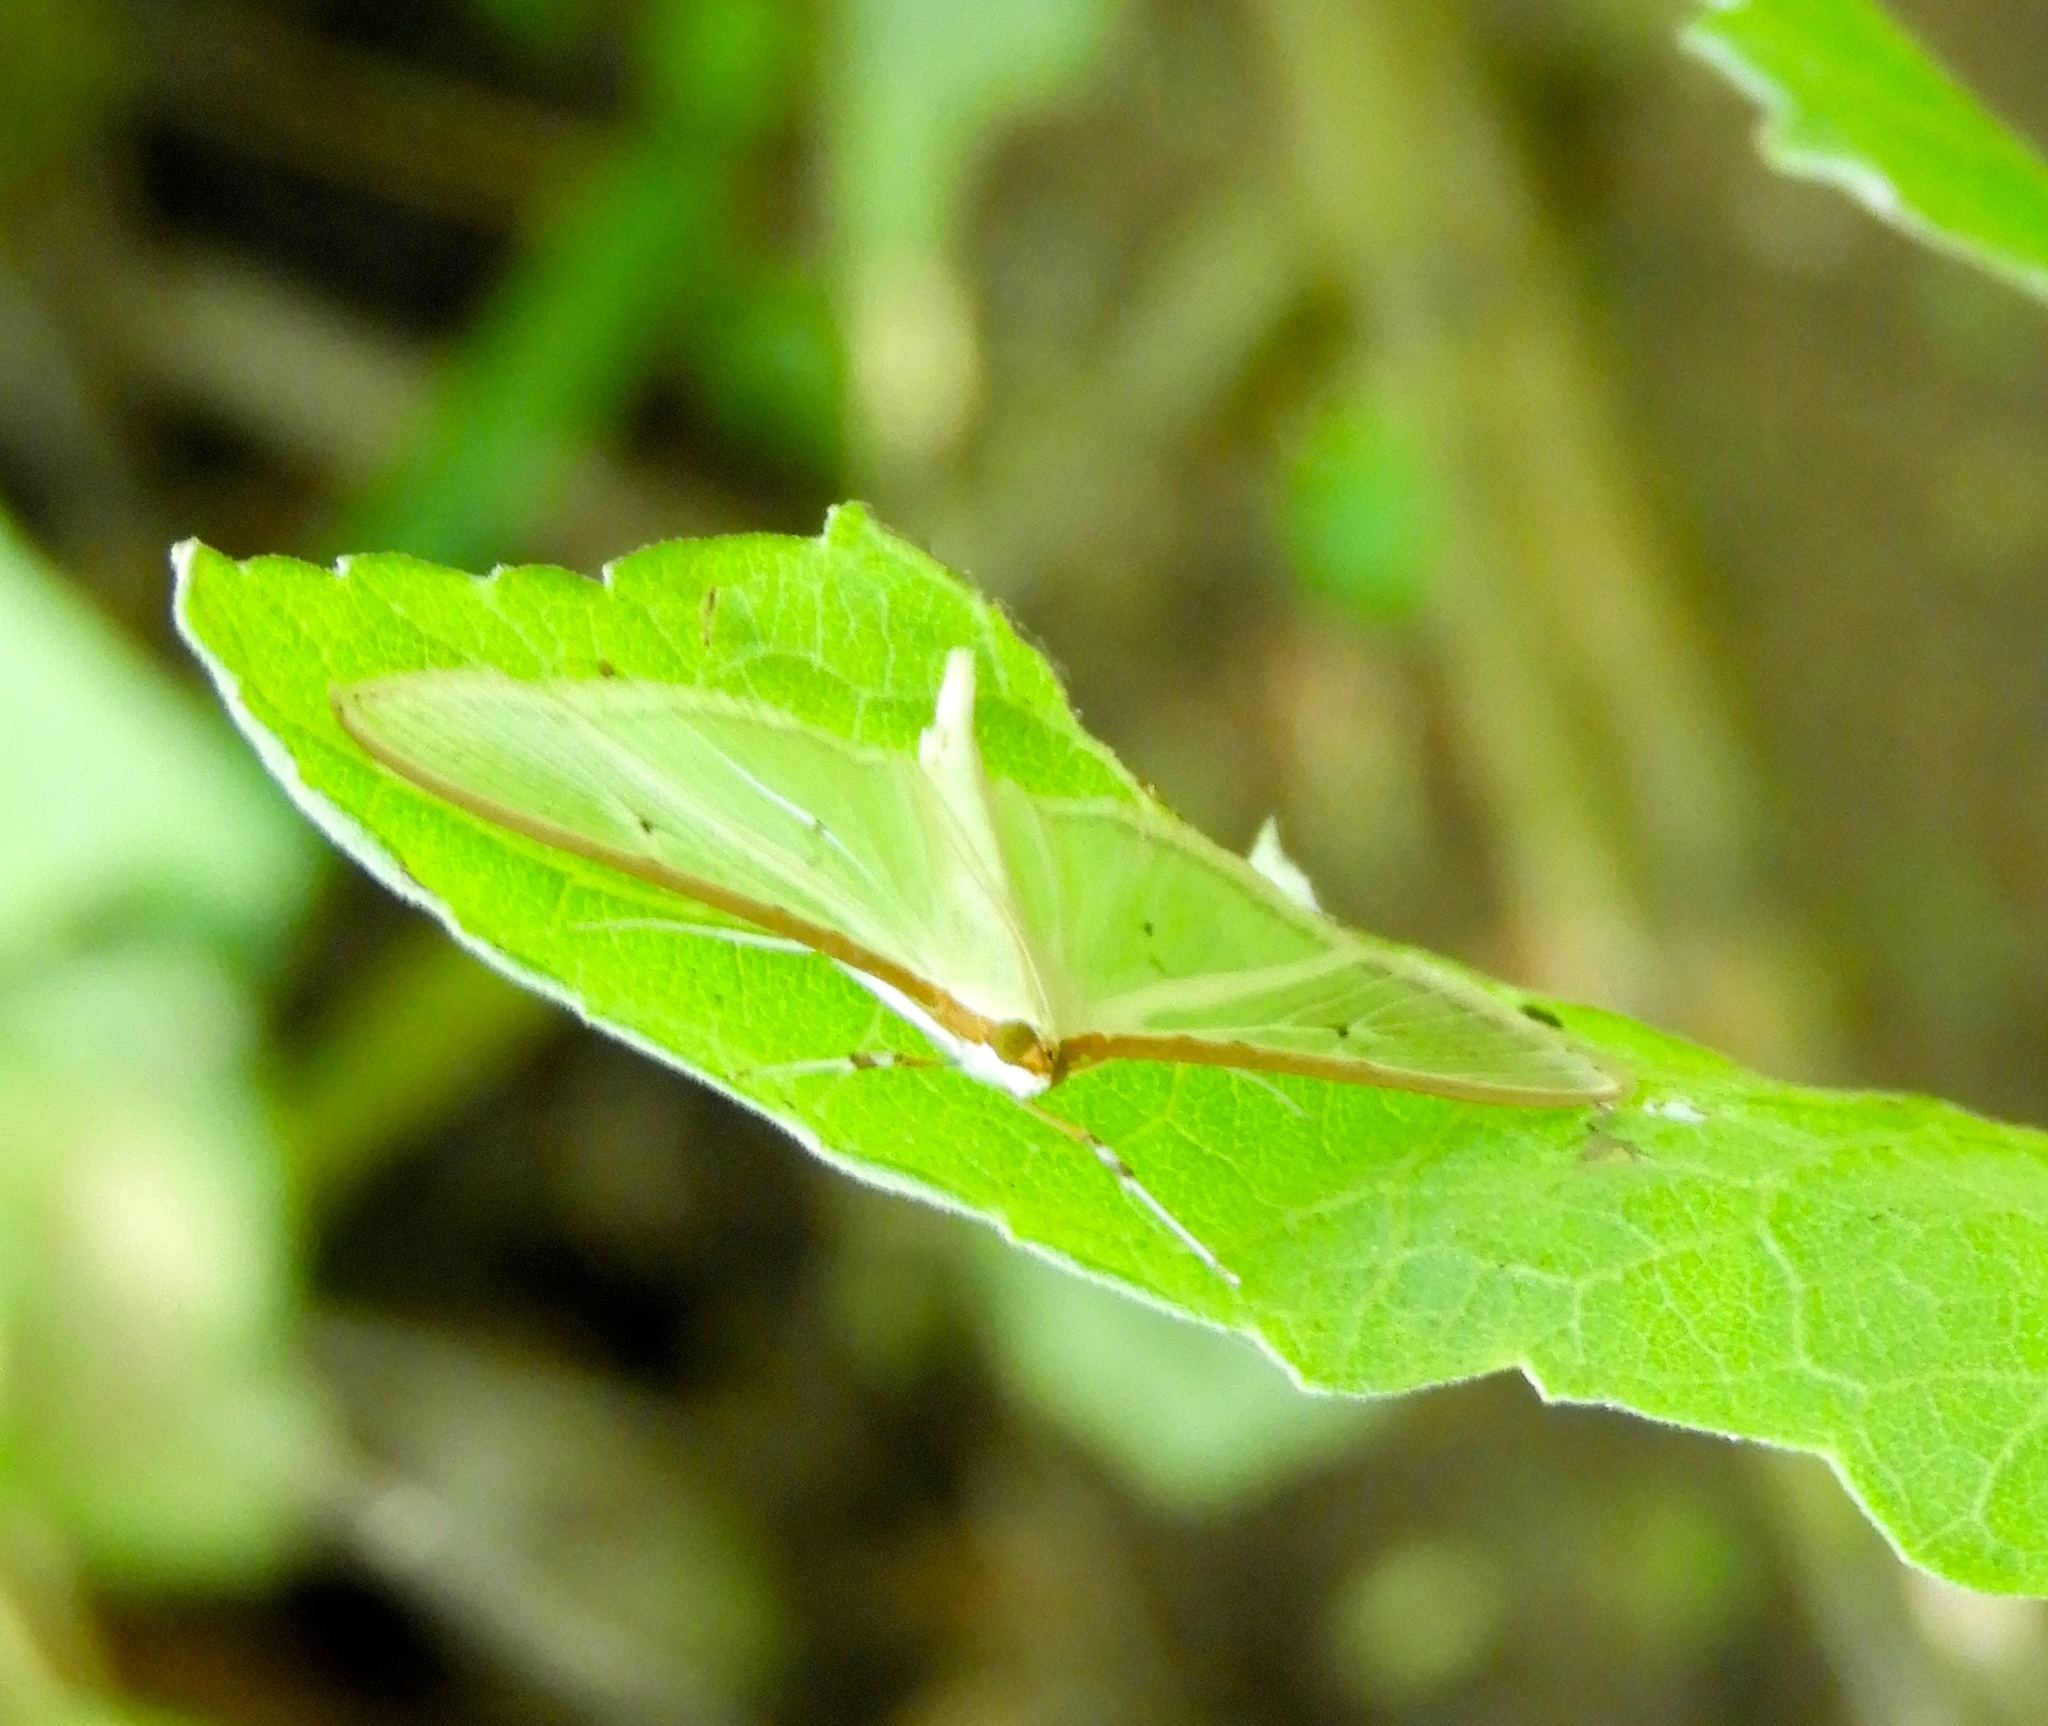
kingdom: Animalia
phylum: Arthropoda
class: Insecta
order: Lepidoptera
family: Crambidae
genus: Palpita
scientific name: Palpita quadristigmalis
